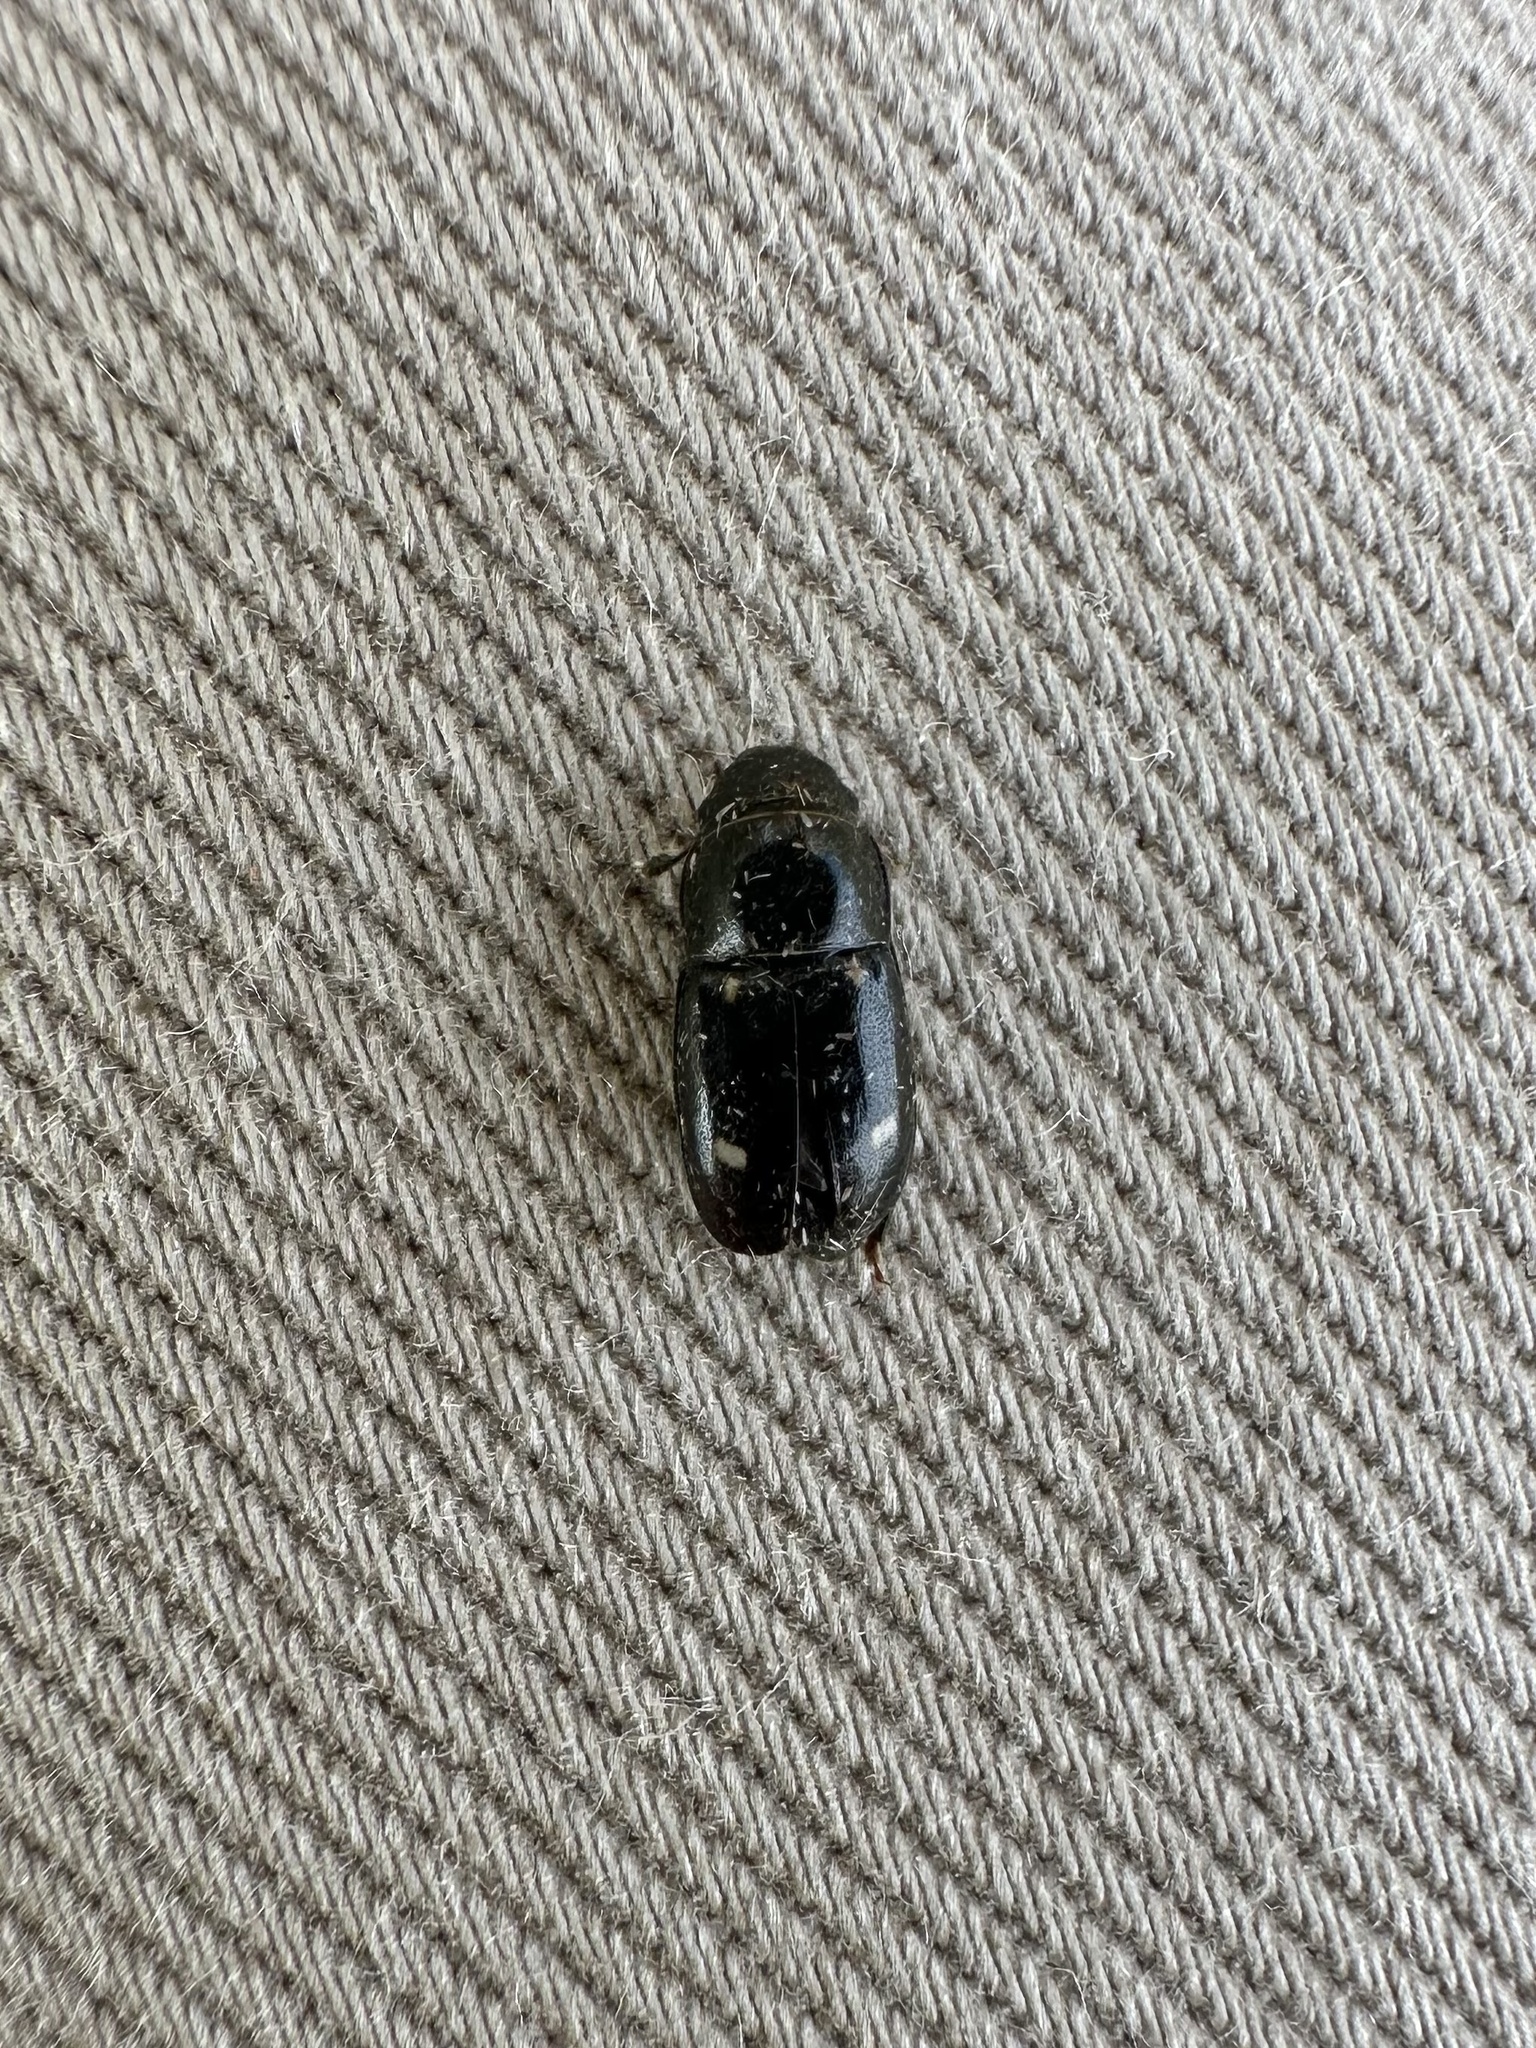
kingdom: Animalia
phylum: Arthropoda
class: Insecta
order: Coleoptera
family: Nitidulidae
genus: Glischrochilus
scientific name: Glischrochilus siepmanni
